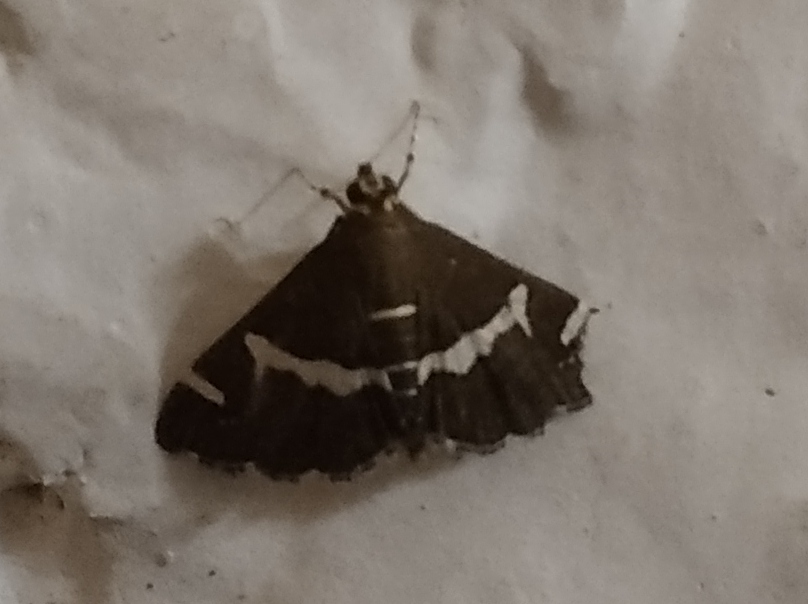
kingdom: Animalia
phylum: Arthropoda
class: Insecta
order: Lepidoptera
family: Crambidae
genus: Spoladea
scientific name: Spoladea recurvalis
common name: Beet webworm moth
